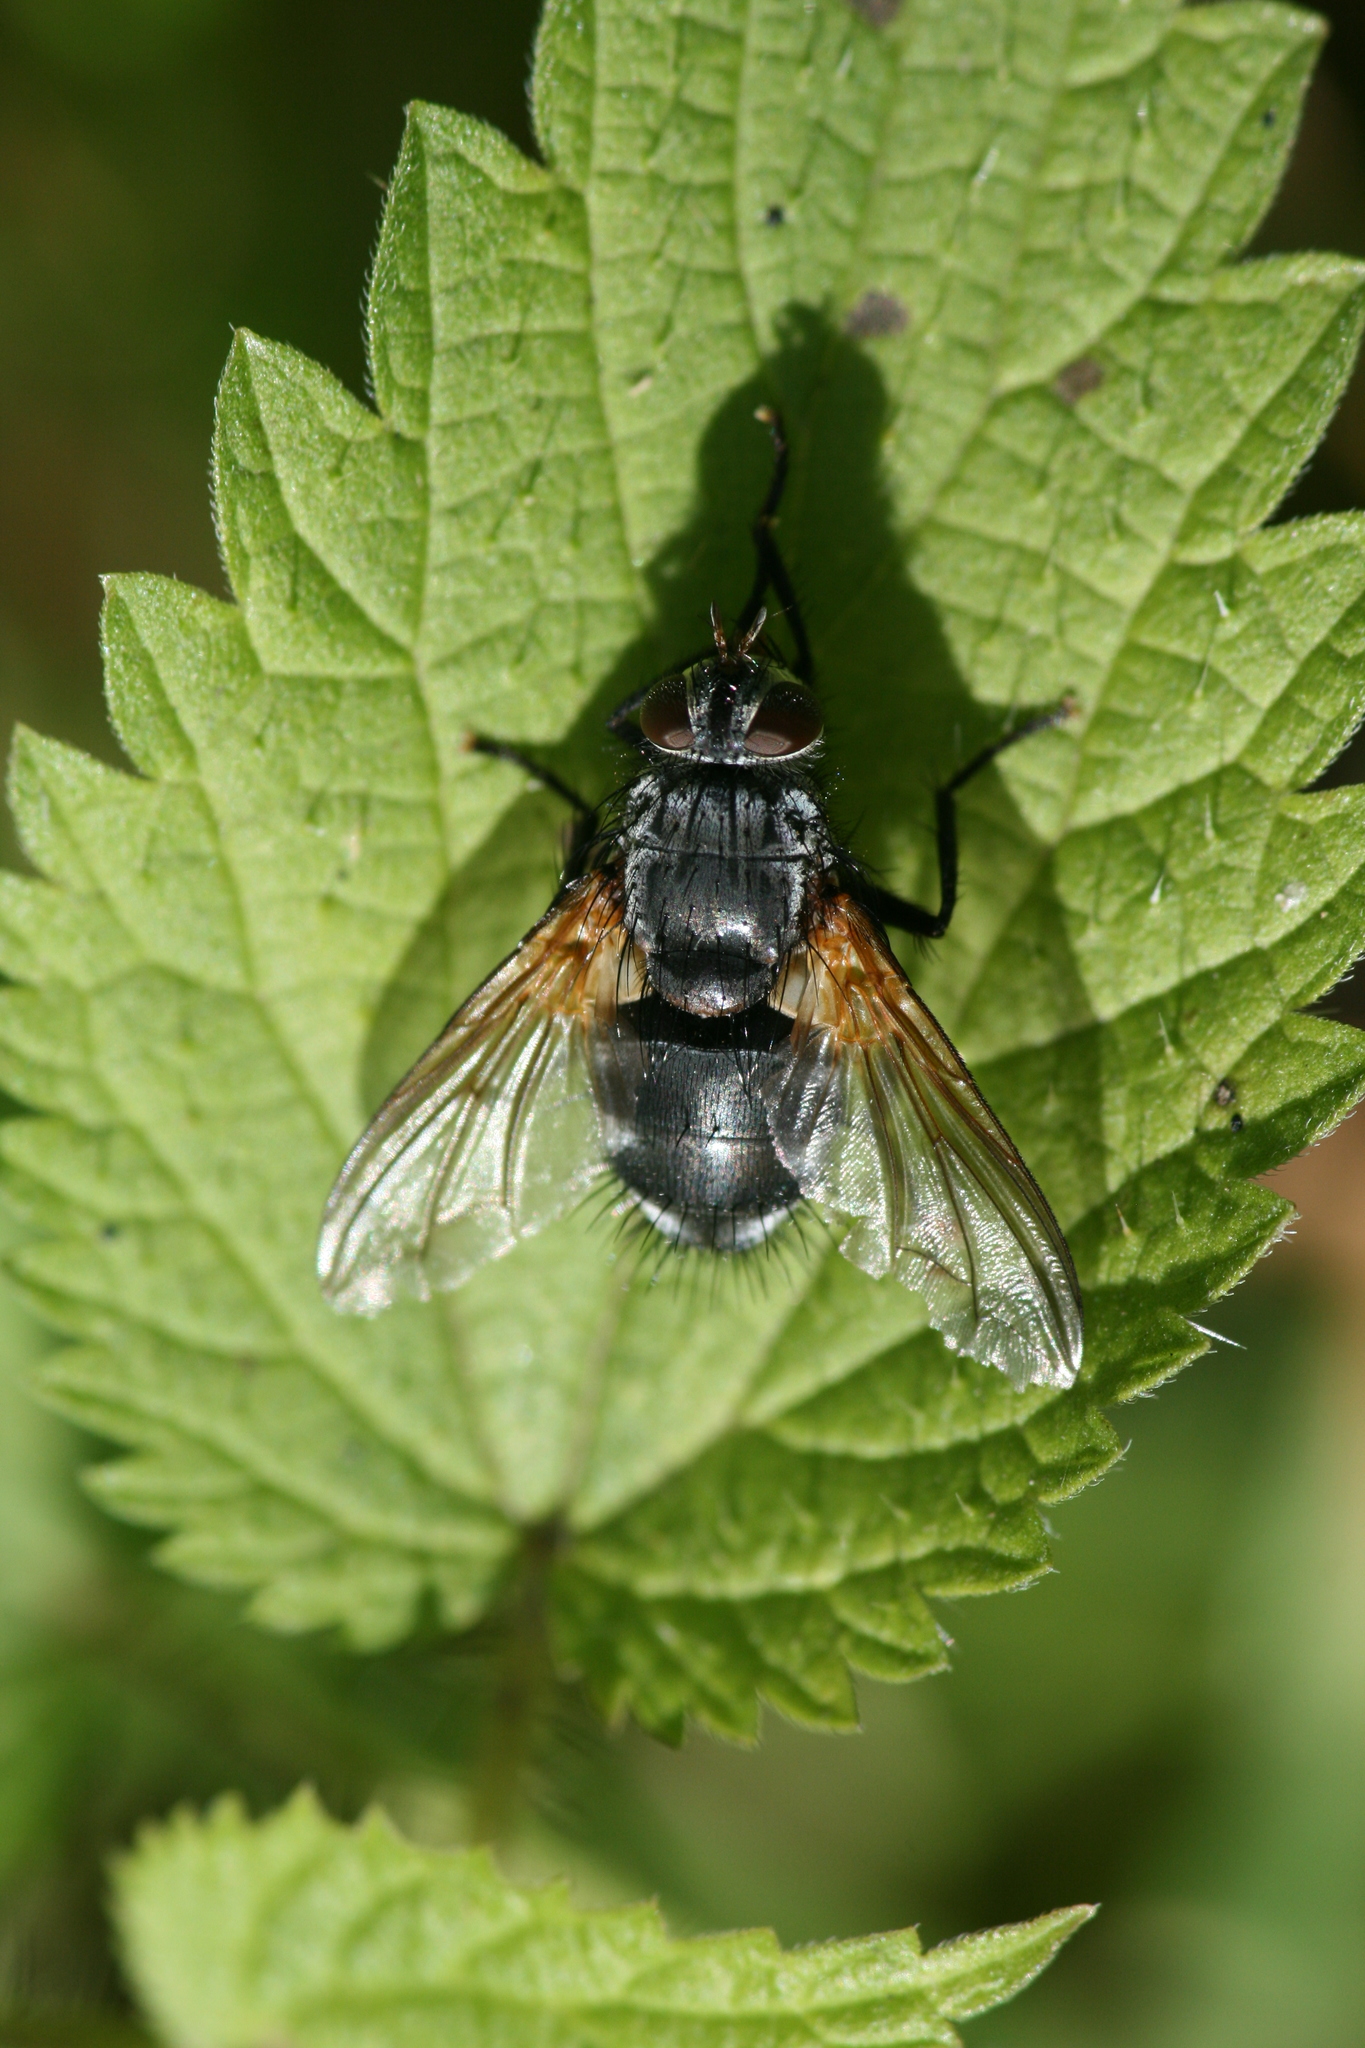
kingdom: Animalia
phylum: Arthropoda
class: Insecta
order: Diptera
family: Tachinidae
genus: Nemoraea
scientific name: Nemoraea pellucida
